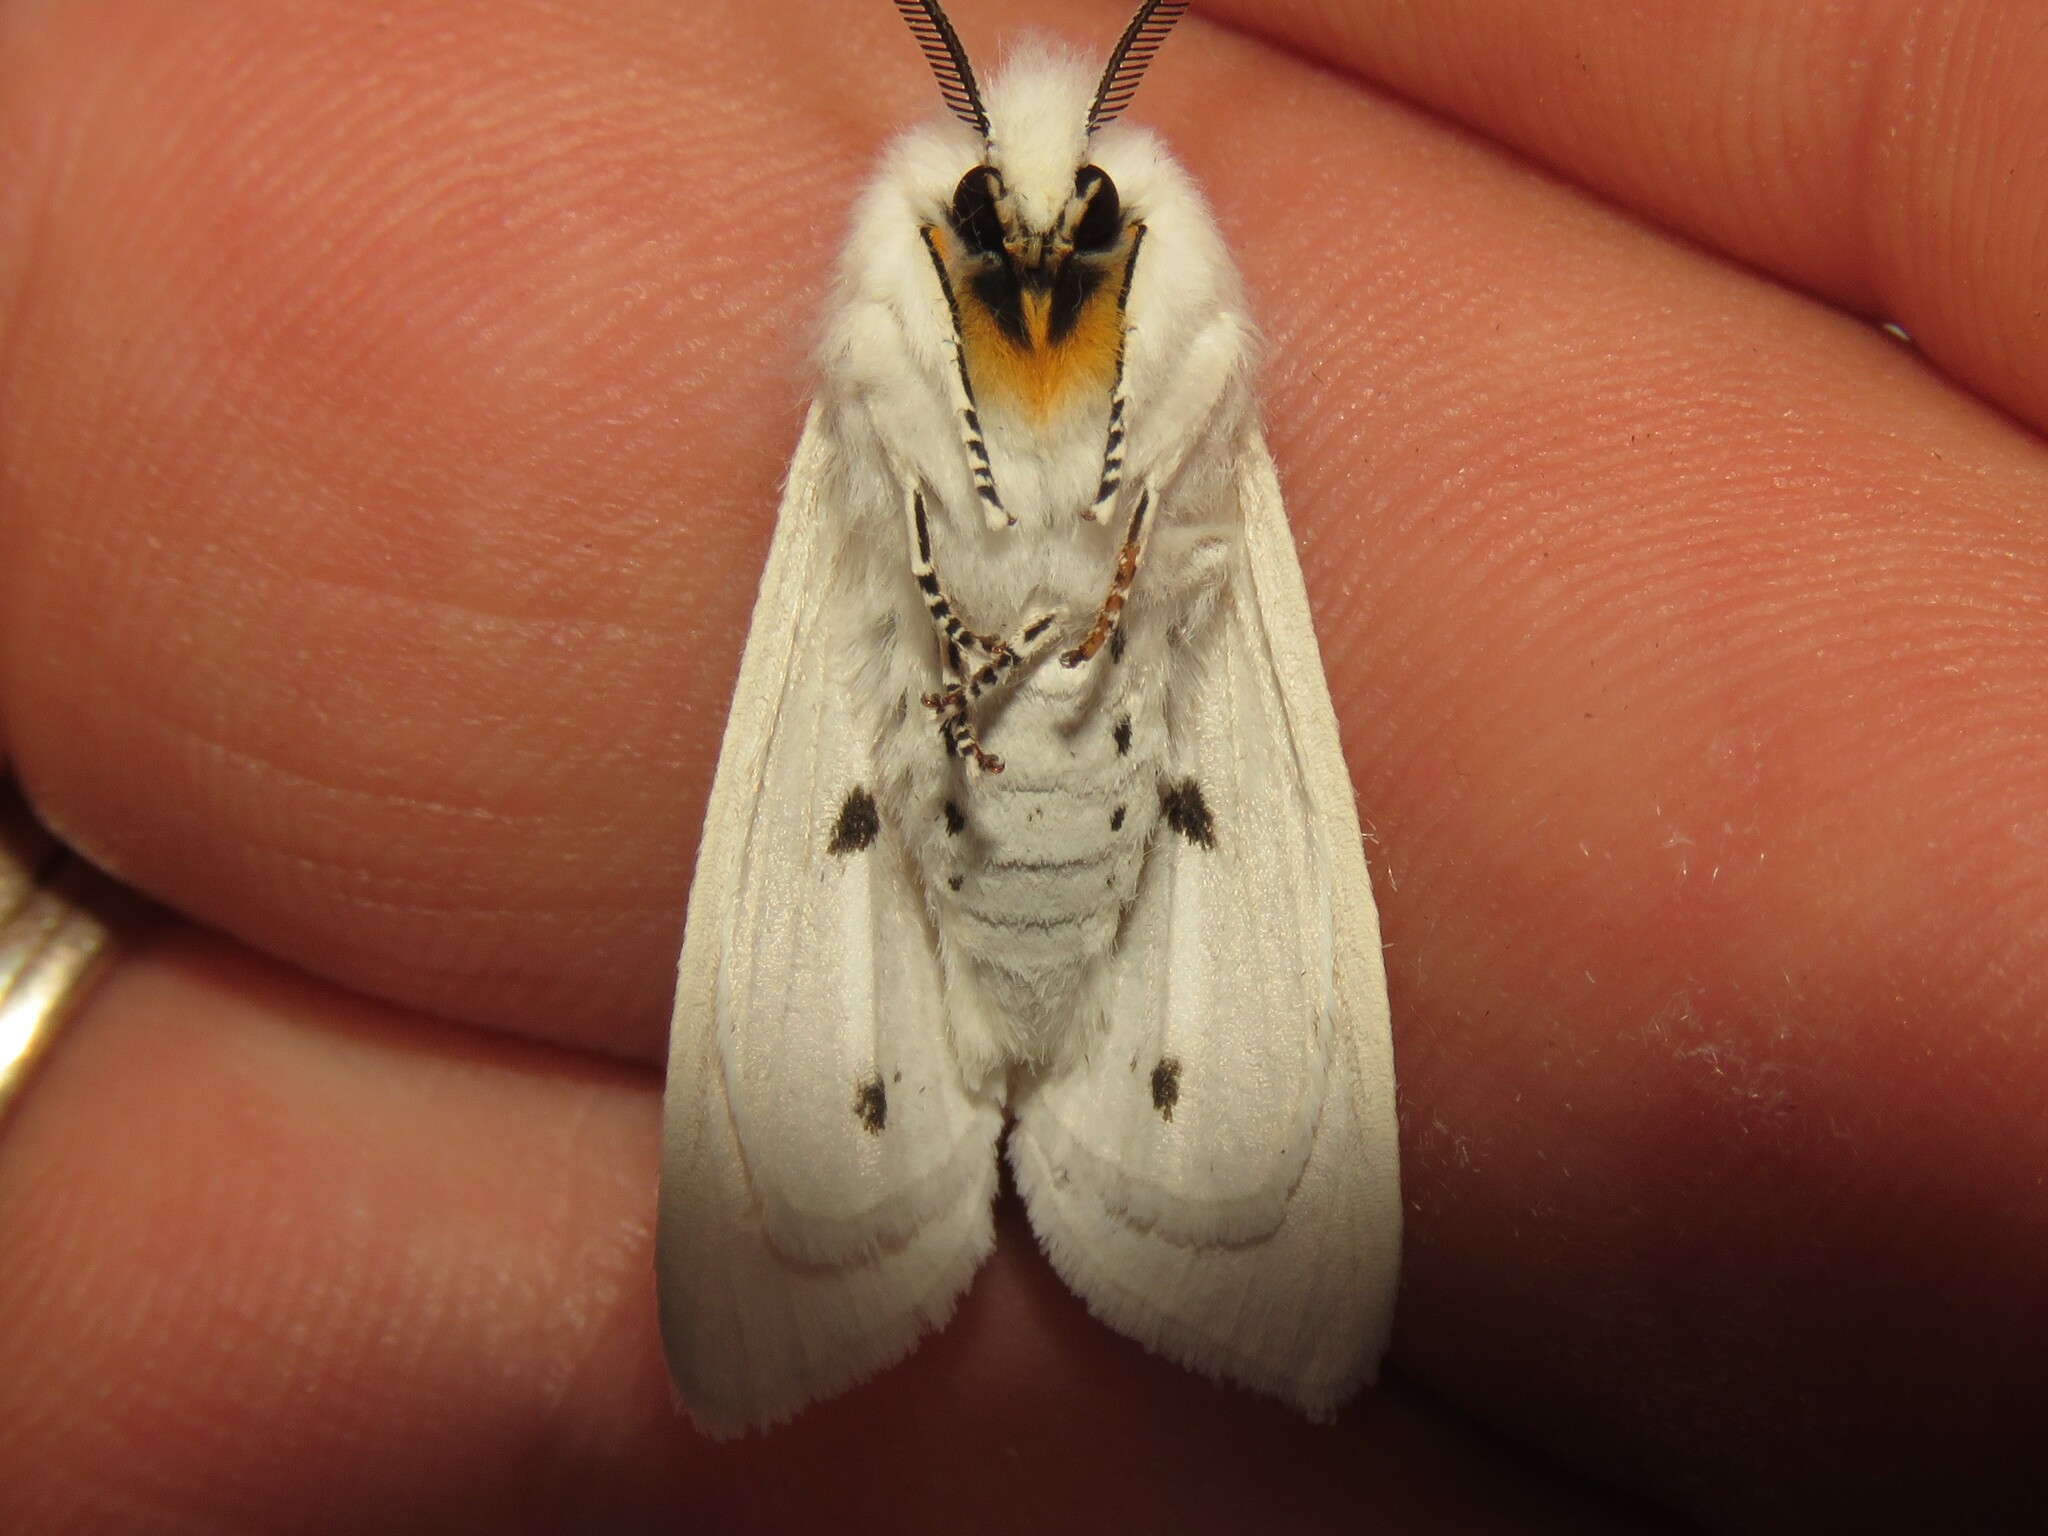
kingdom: Animalia
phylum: Arthropoda
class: Insecta
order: Lepidoptera
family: Erebidae
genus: Spilosoma
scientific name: Spilosoma virginica
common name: Virginia tiger moth
